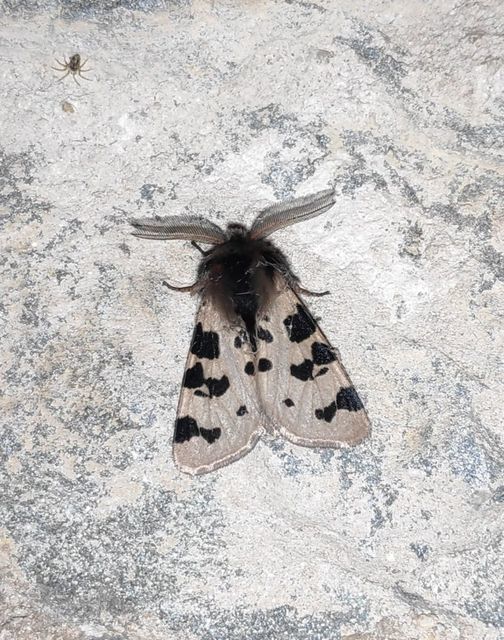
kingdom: Animalia
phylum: Arthropoda
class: Insecta
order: Lepidoptera
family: Erebidae
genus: Ocnogyna
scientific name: Ocnogyna zoraida
